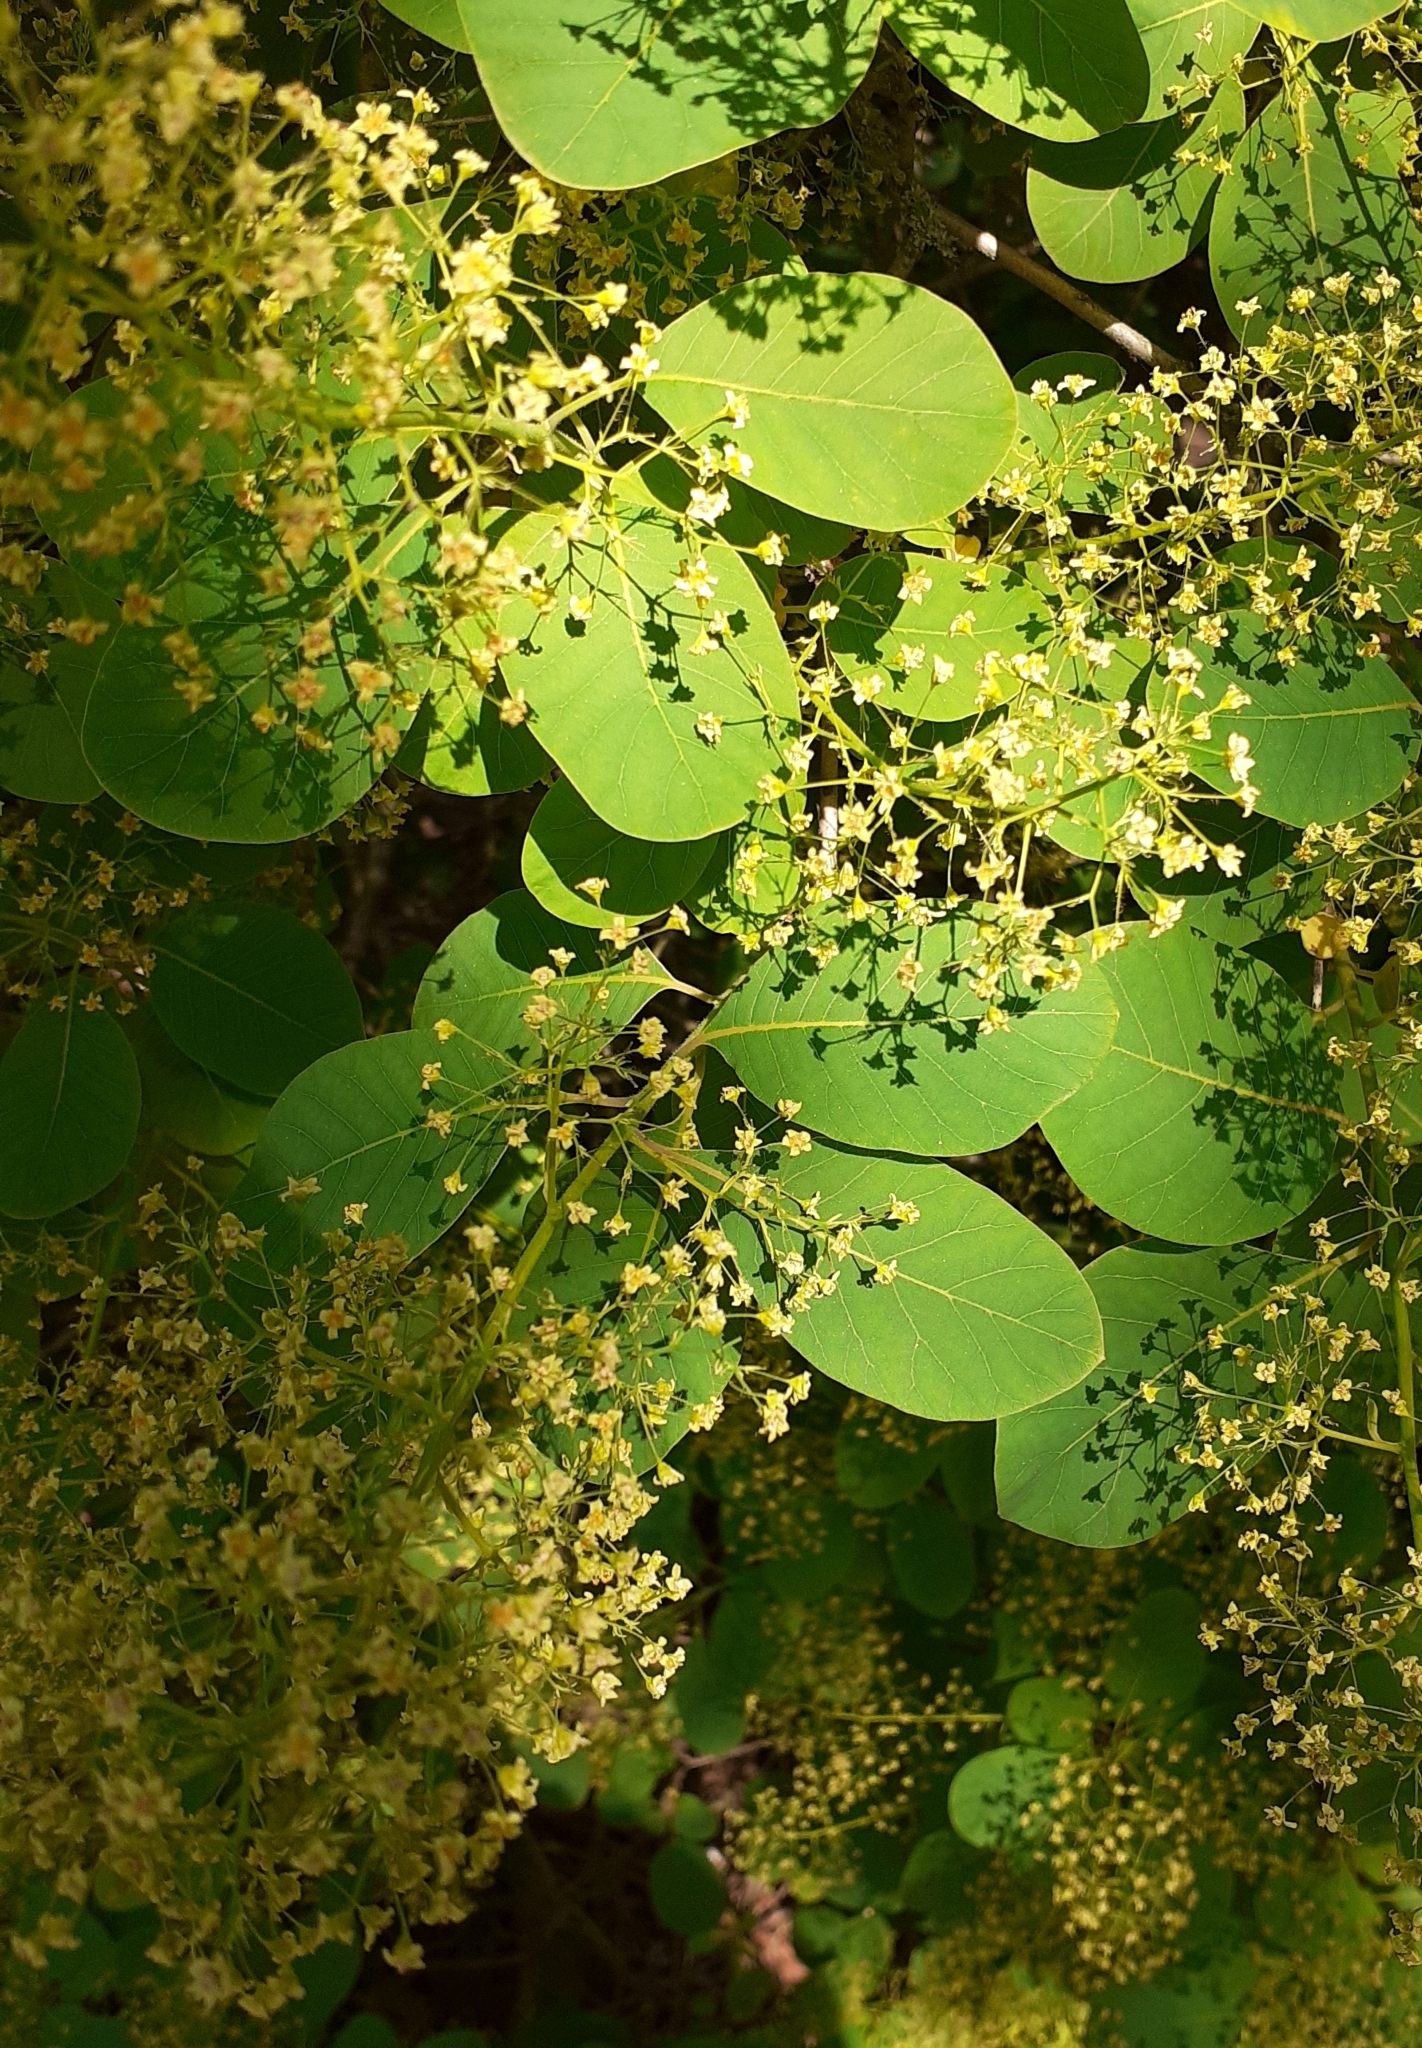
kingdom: Plantae
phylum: Tracheophyta
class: Magnoliopsida
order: Sapindales
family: Anacardiaceae
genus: Cotinus
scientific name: Cotinus coggygria
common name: Smoke-tree
